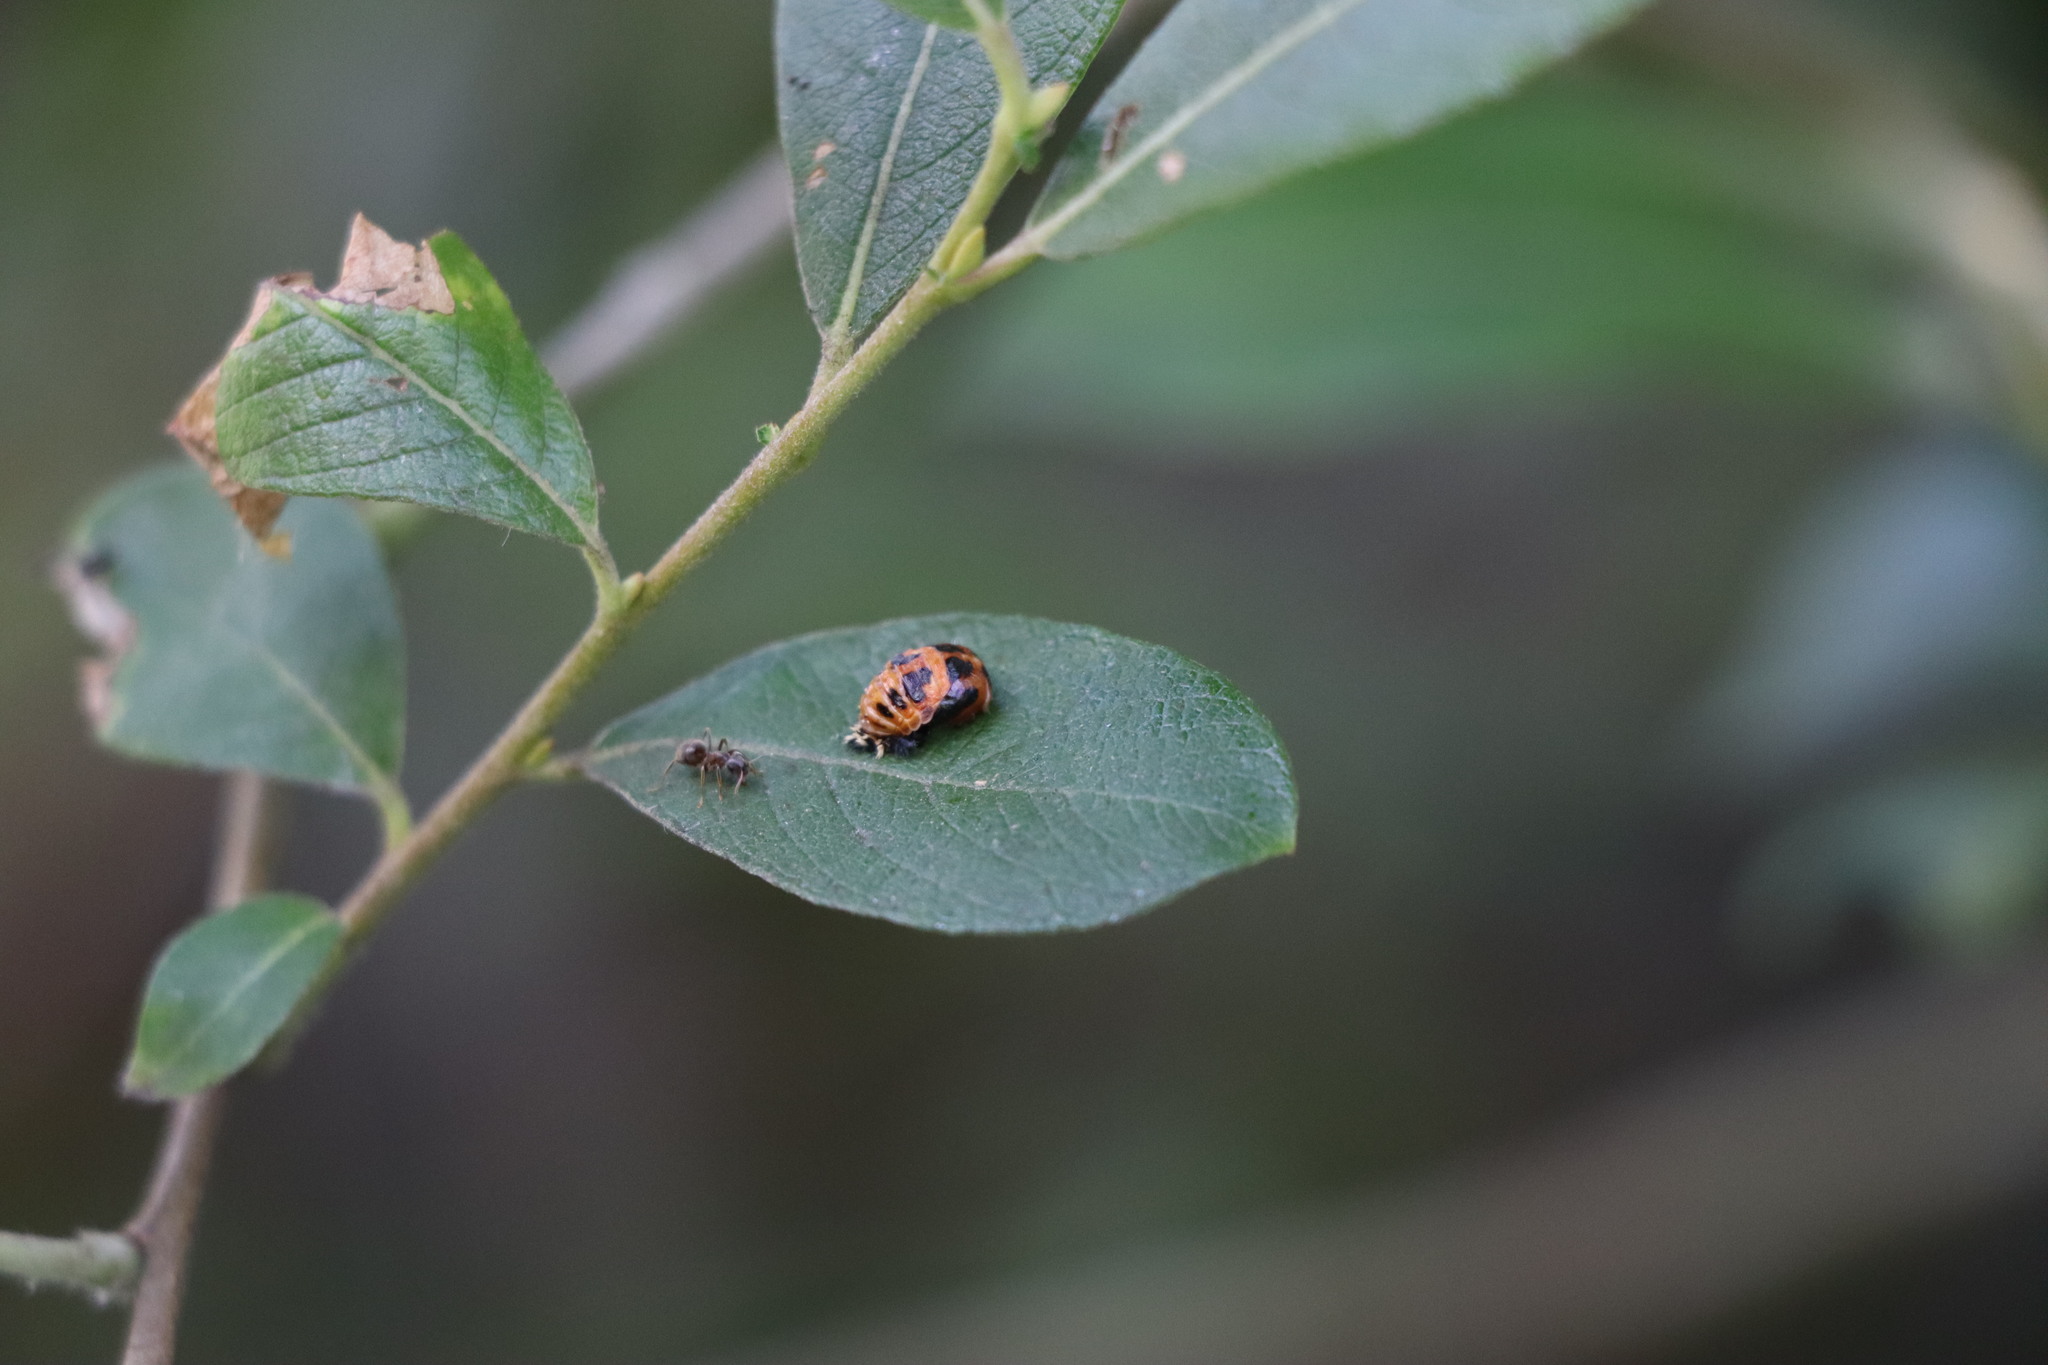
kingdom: Animalia
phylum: Arthropoda
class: Insecta
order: Coleoptera
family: Coccinellidae
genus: Harmonia
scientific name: Harmonia axyridis
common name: Harlequin ladybird
